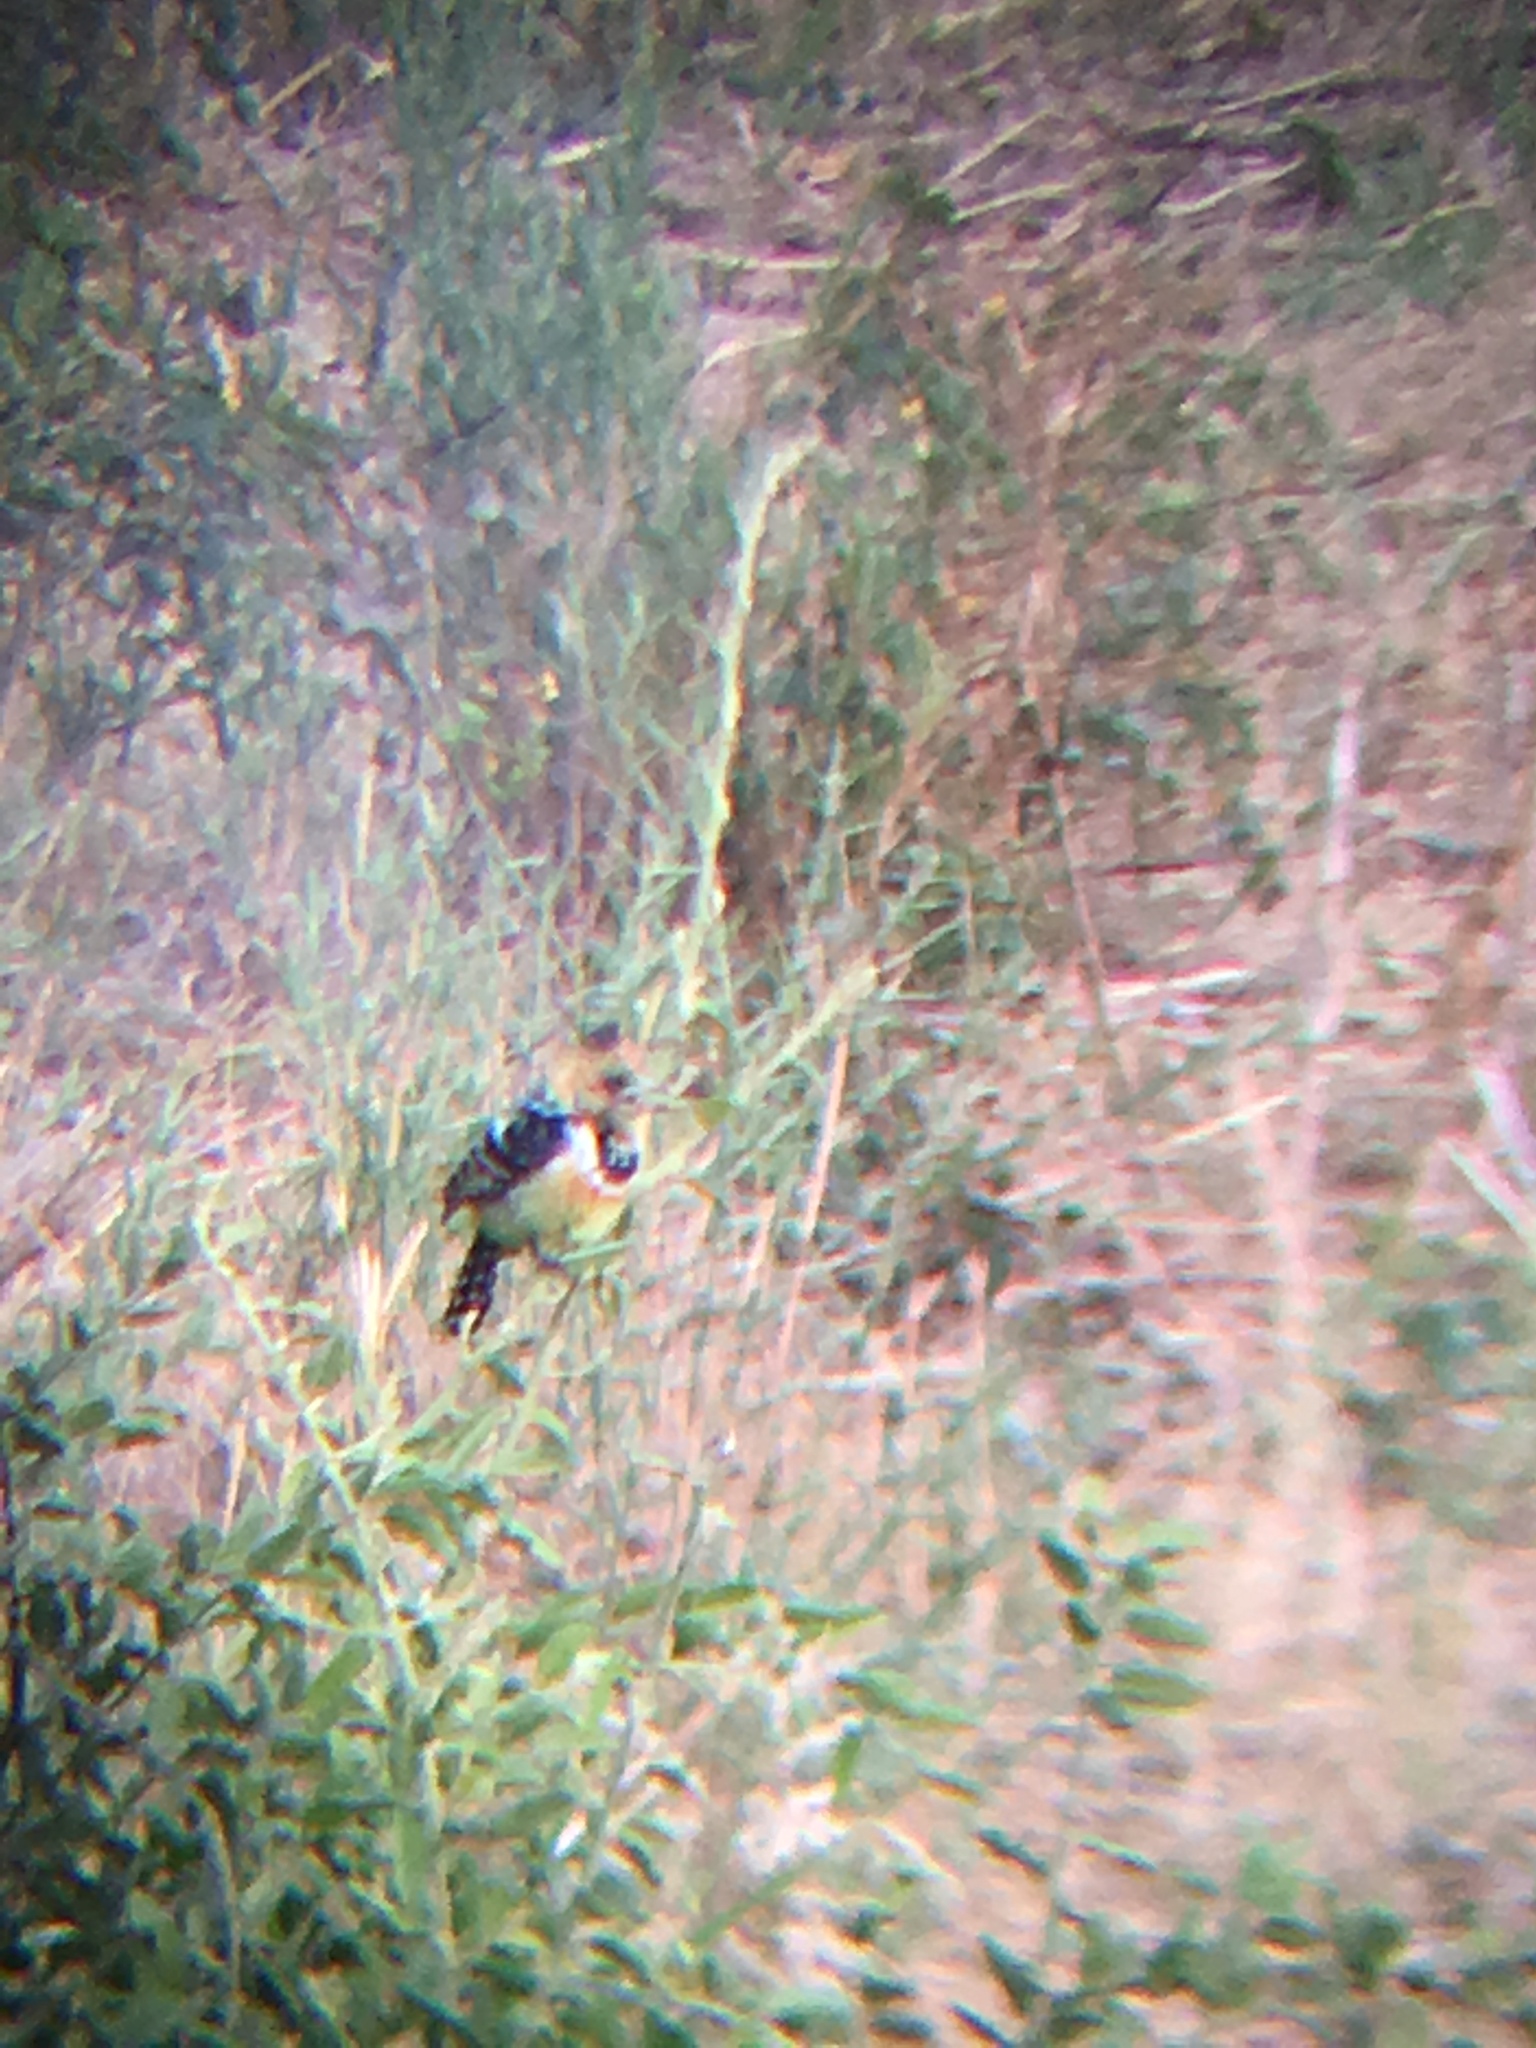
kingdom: Animalia
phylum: Chordata
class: Aves
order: Piciformes
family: Lybiidae
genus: Trachyphonus
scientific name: Trachyphonus vaillantii
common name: Crested barbet
